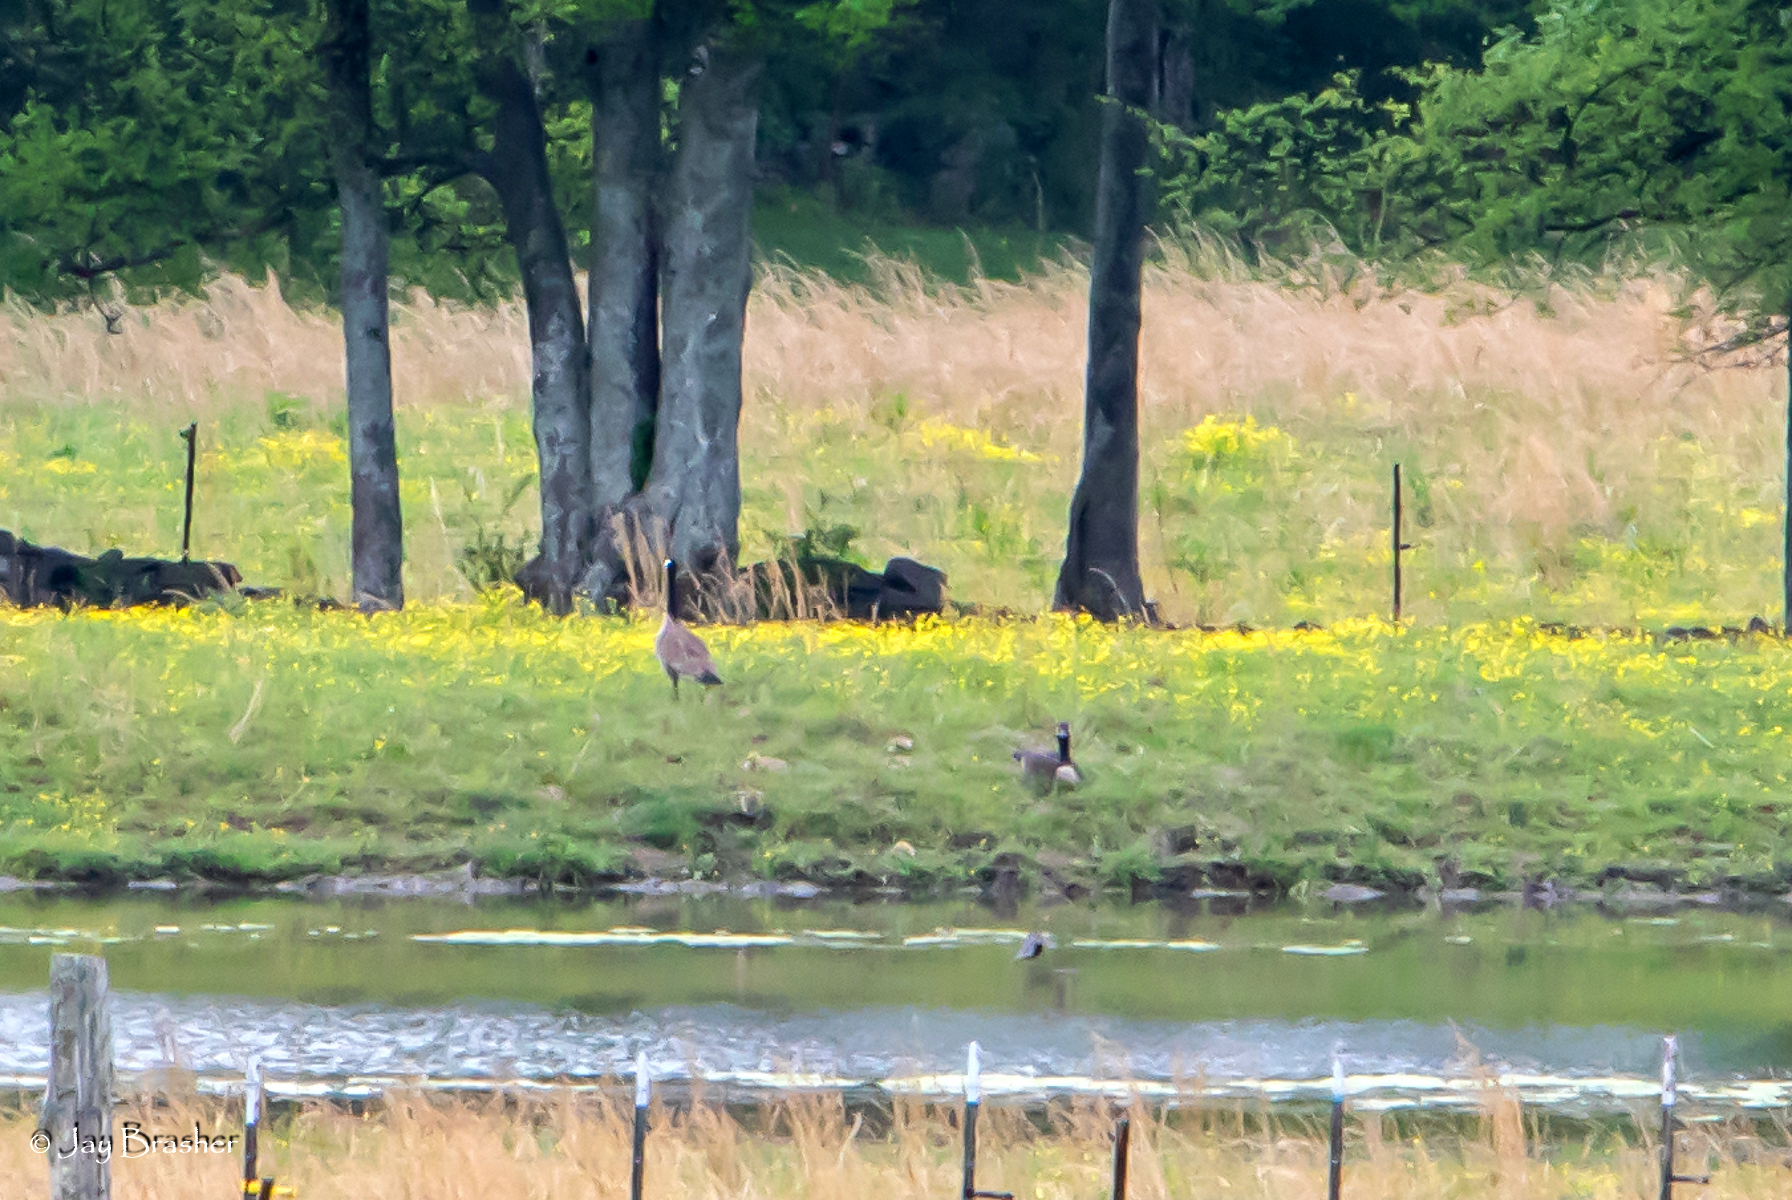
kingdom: Animalia
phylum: Chordata
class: Aves
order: Anseriformes
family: Anatidae
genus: Branta
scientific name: Branta canadensis
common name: Canada goose
